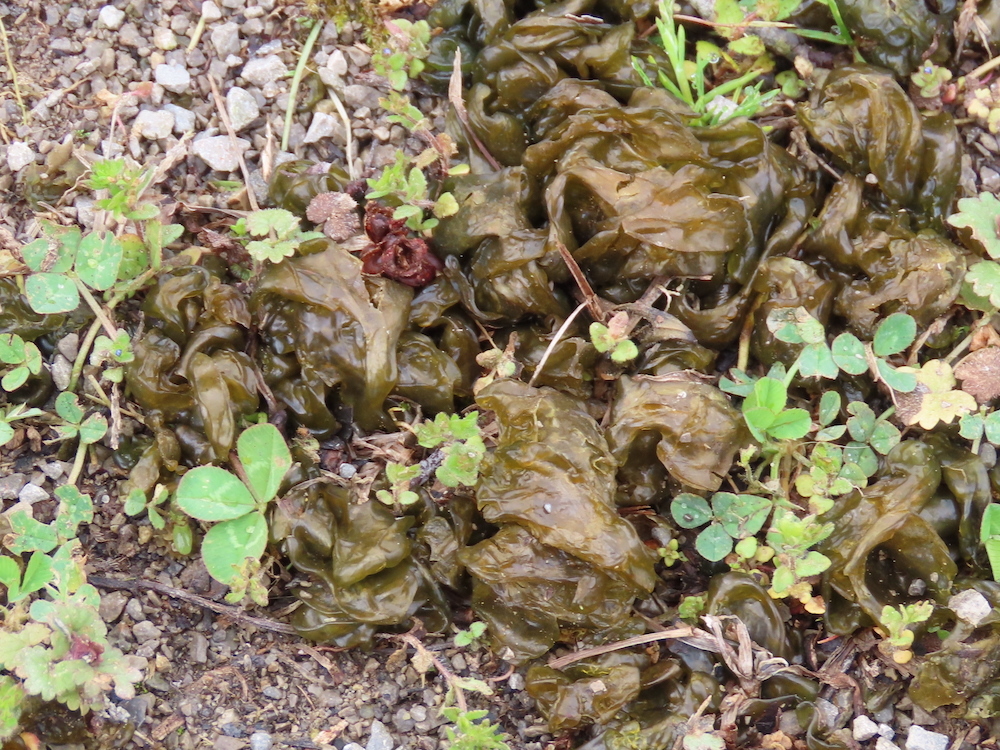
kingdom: Bacteria
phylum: Cyanobacteria
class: Cyanobacteriia
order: Cyanobacteriales
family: Nostocaceae
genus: Nostoc
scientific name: Nostoc commune
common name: Star jelly
